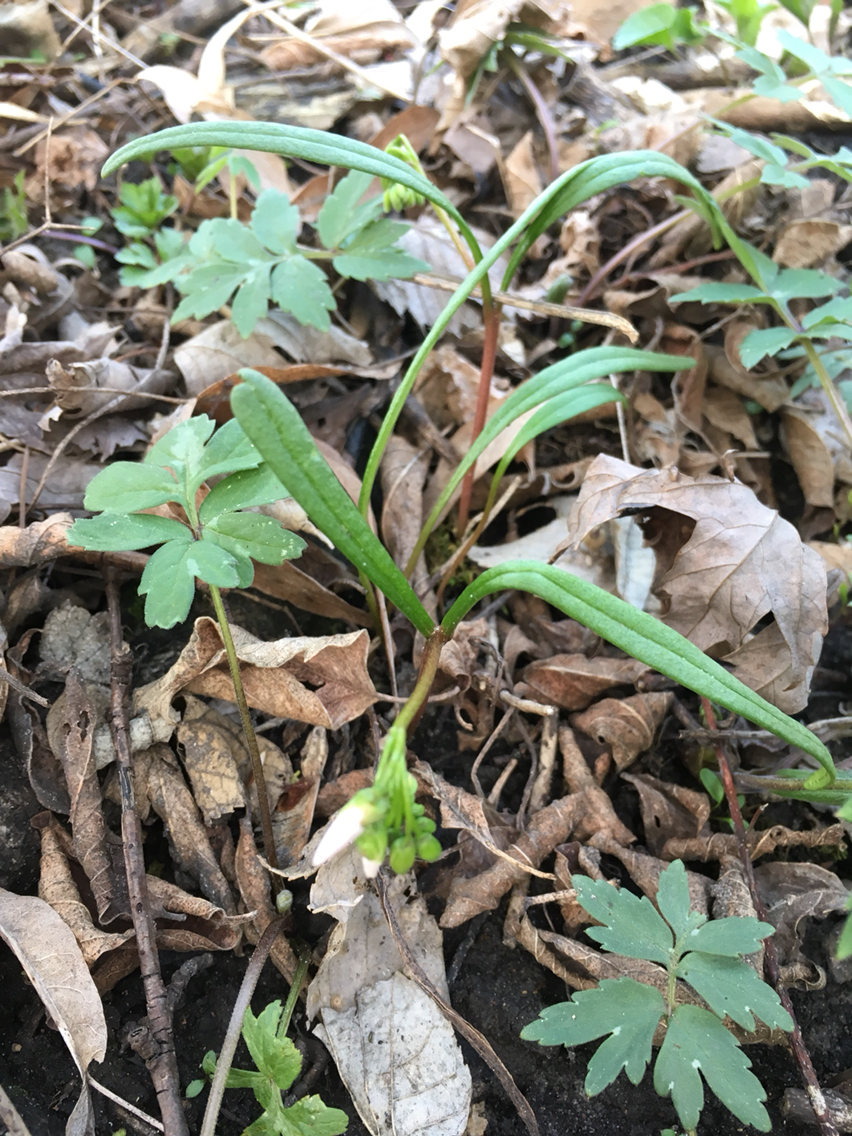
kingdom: Plantae
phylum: Tracheophyta
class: Magnoliopsida
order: Caryophyllales
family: Montiaceae
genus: Claytonia
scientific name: Claytonia virginica
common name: Virginia springbeauty
